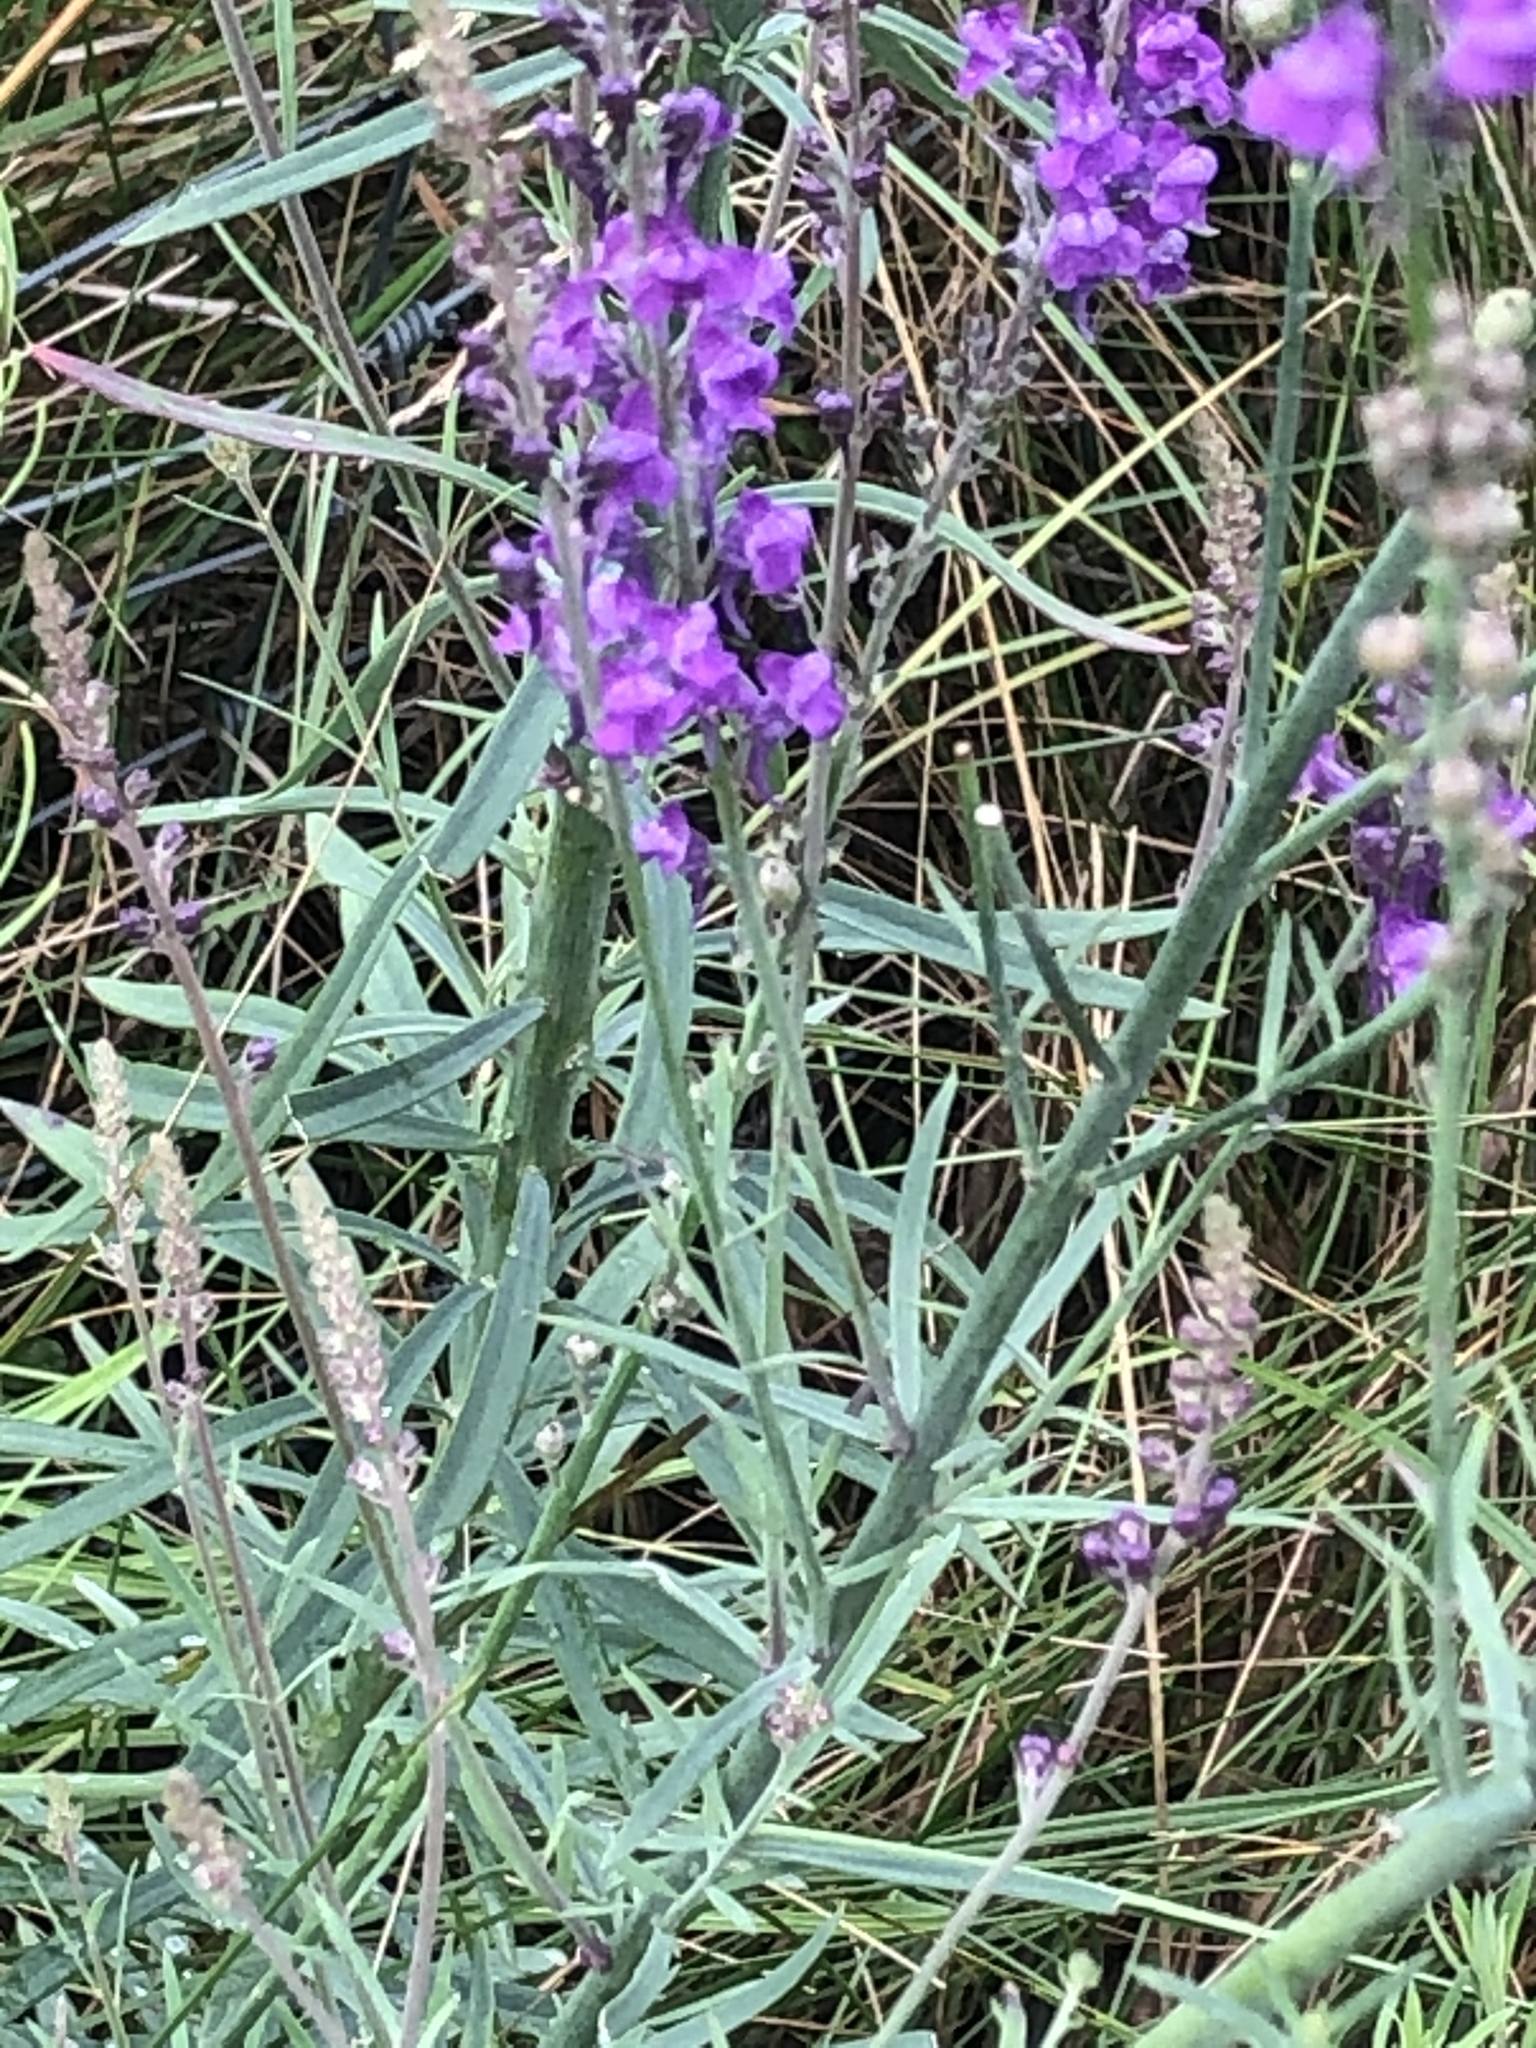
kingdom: Plantae
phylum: Tracheophyta
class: Magnoliopsida
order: Lamiales
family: Plantaginaceae
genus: Linaria
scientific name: Linaria purpurea
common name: Purple toadflax
